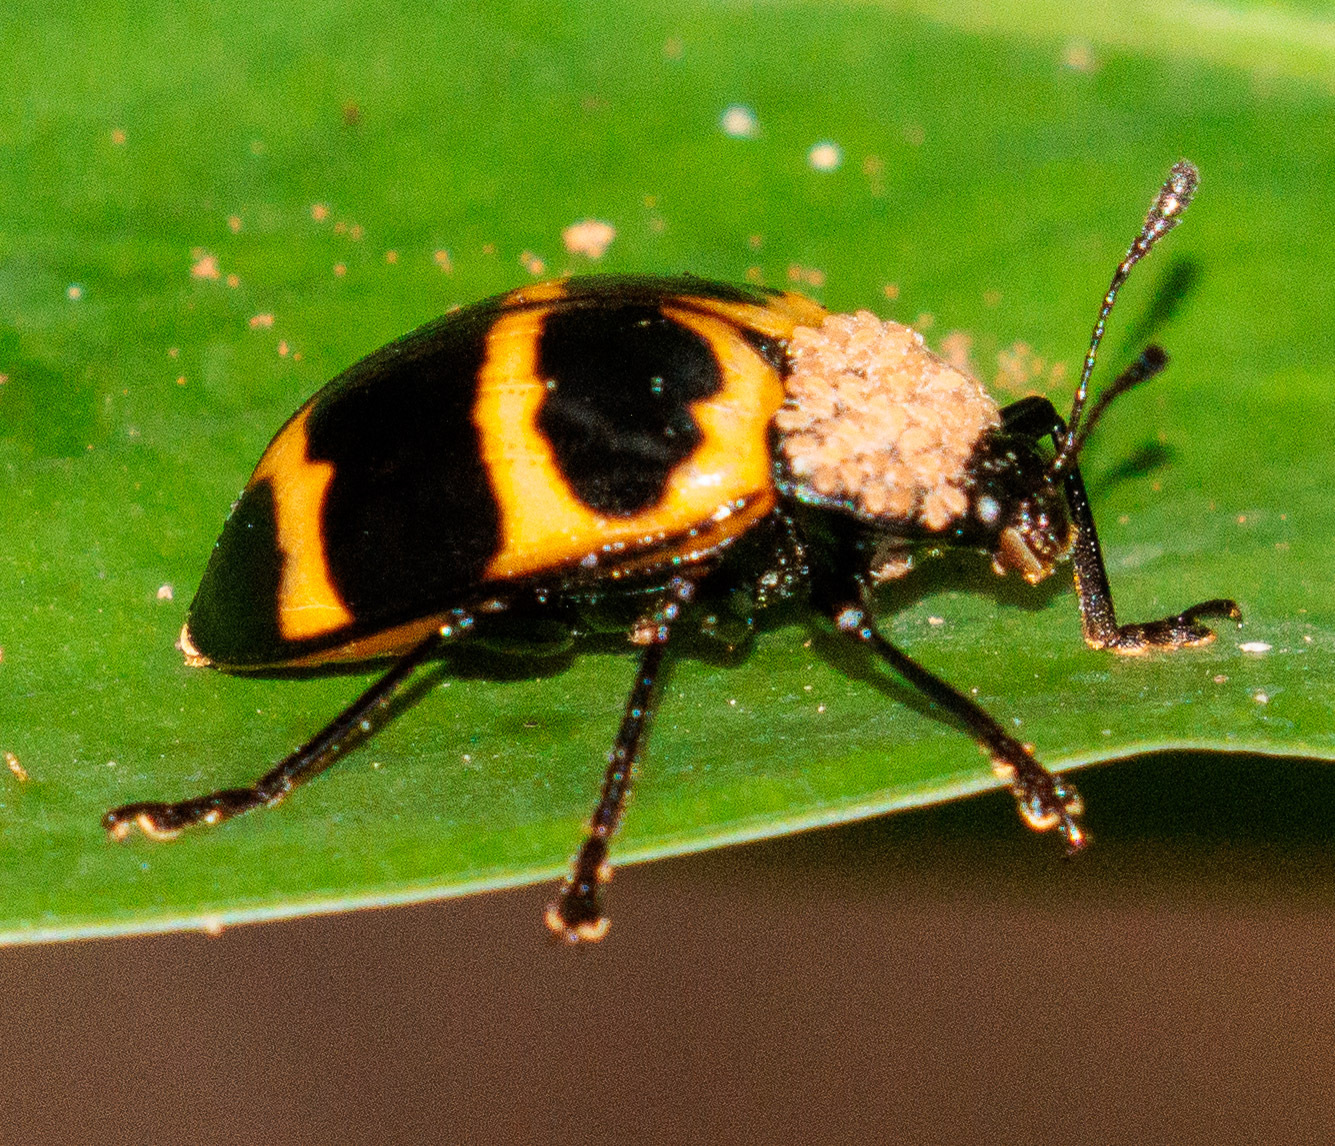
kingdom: Animalia
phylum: Arthropoda
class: Insecta
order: Coleoptera
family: Erotylidae
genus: Oligocorynus
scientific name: Oligocorynus
